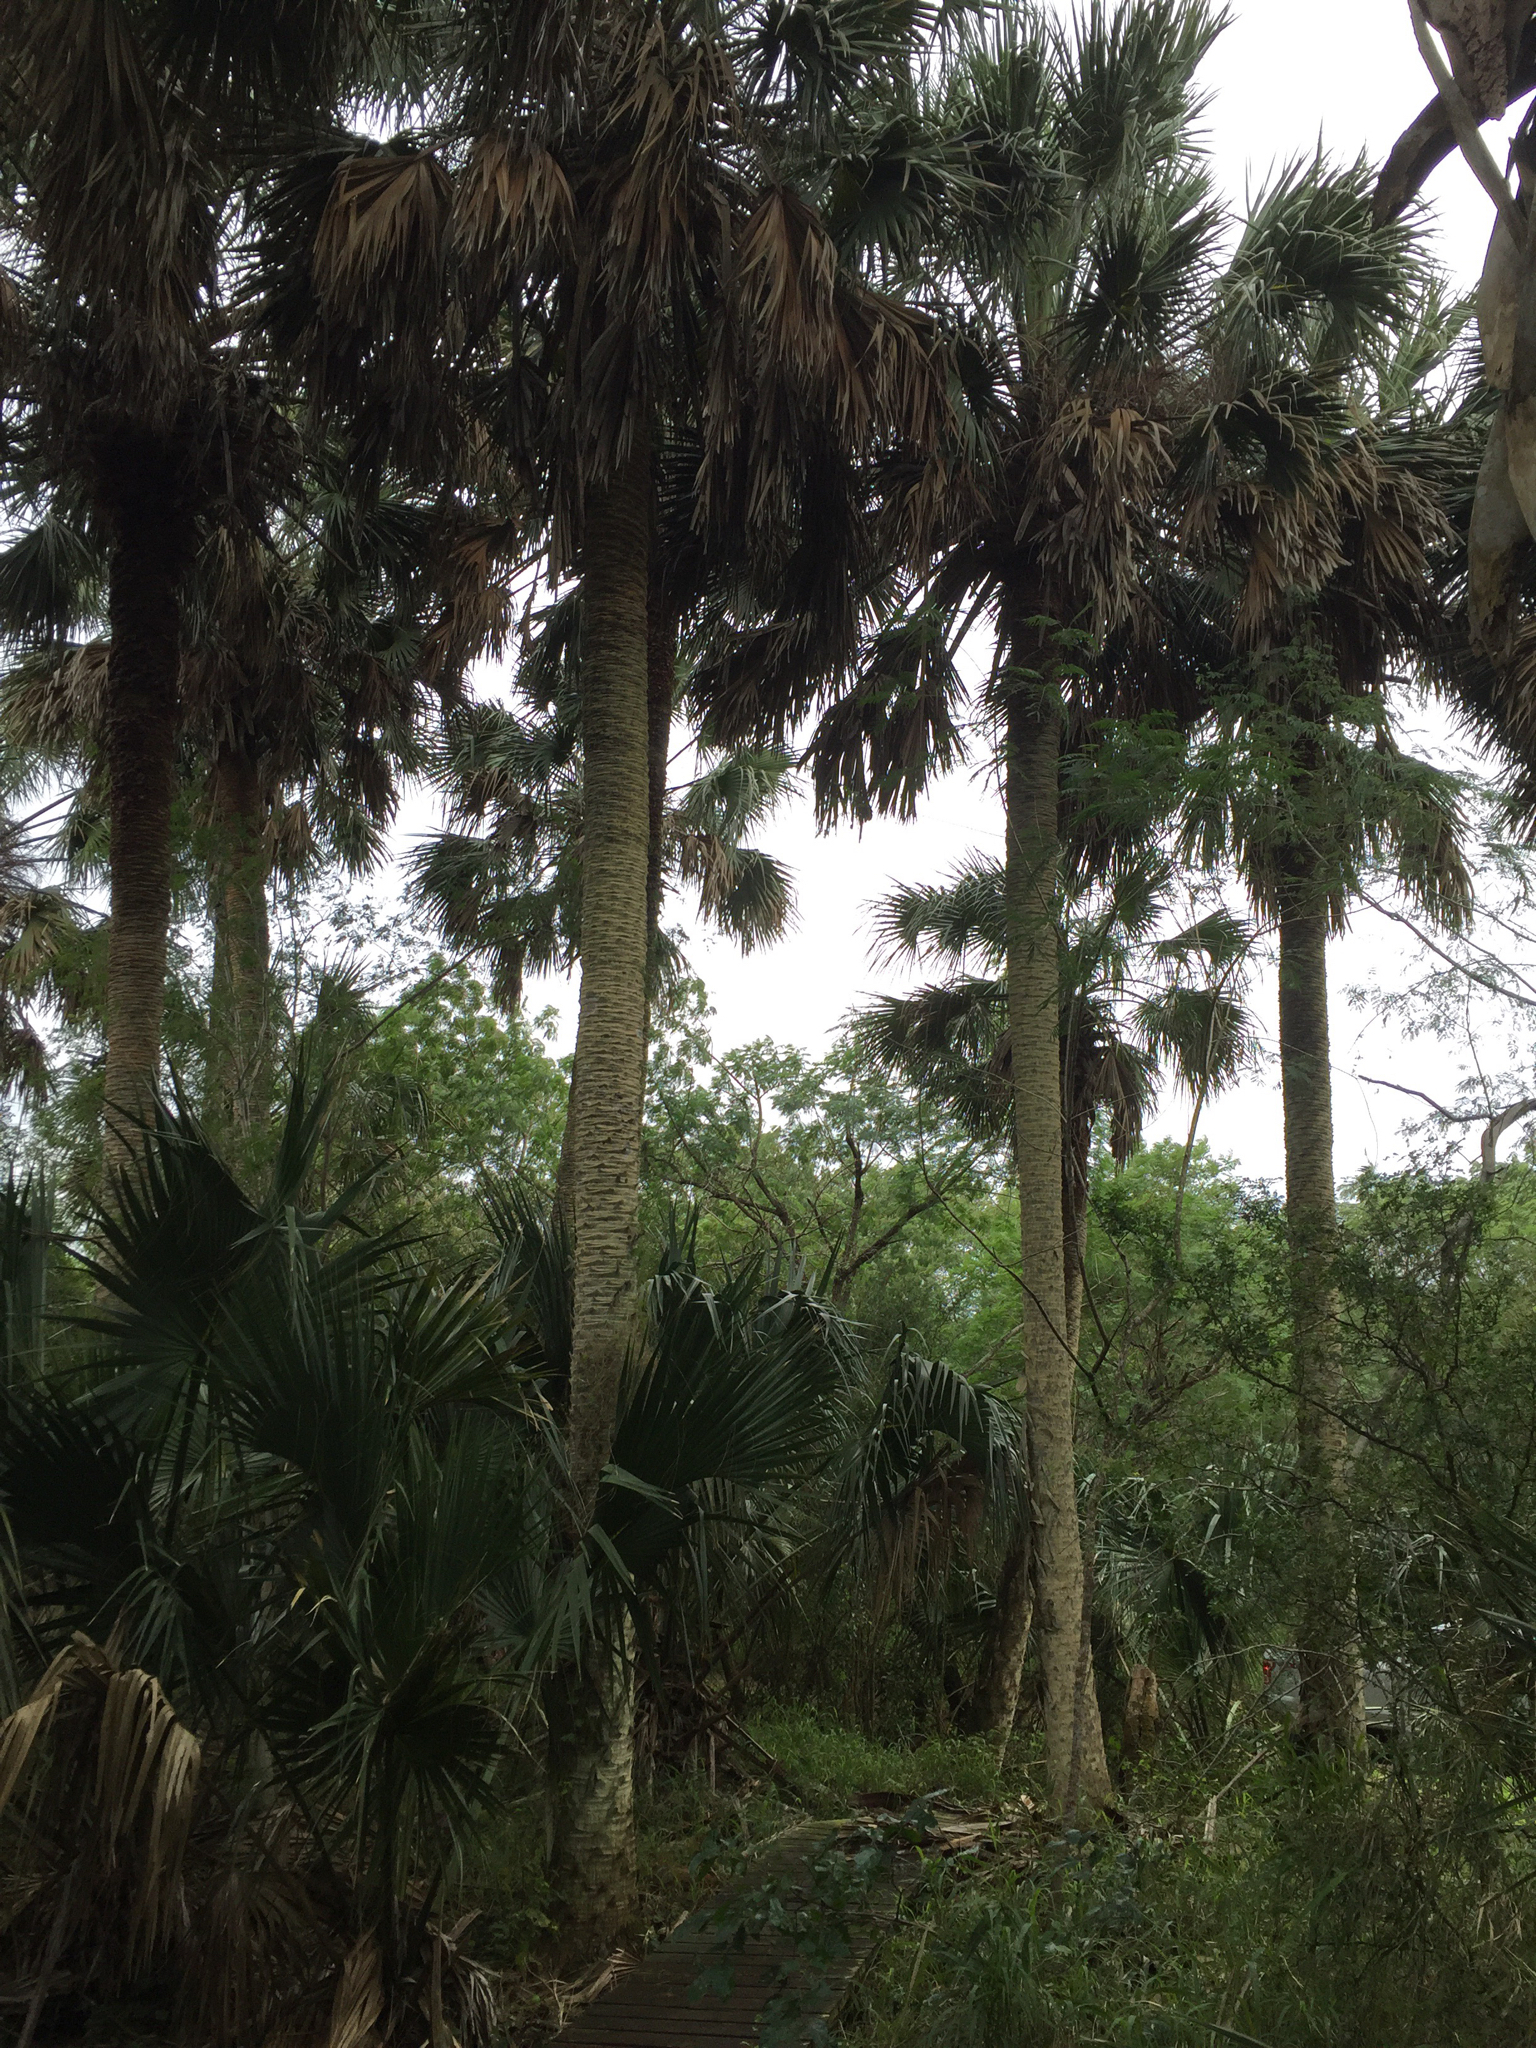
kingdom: Plantae
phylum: Tracheophyta
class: Liliopsida
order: Arecales
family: Arecaceae
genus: Sabal
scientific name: Sabal mexicana
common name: Texas palmetto
